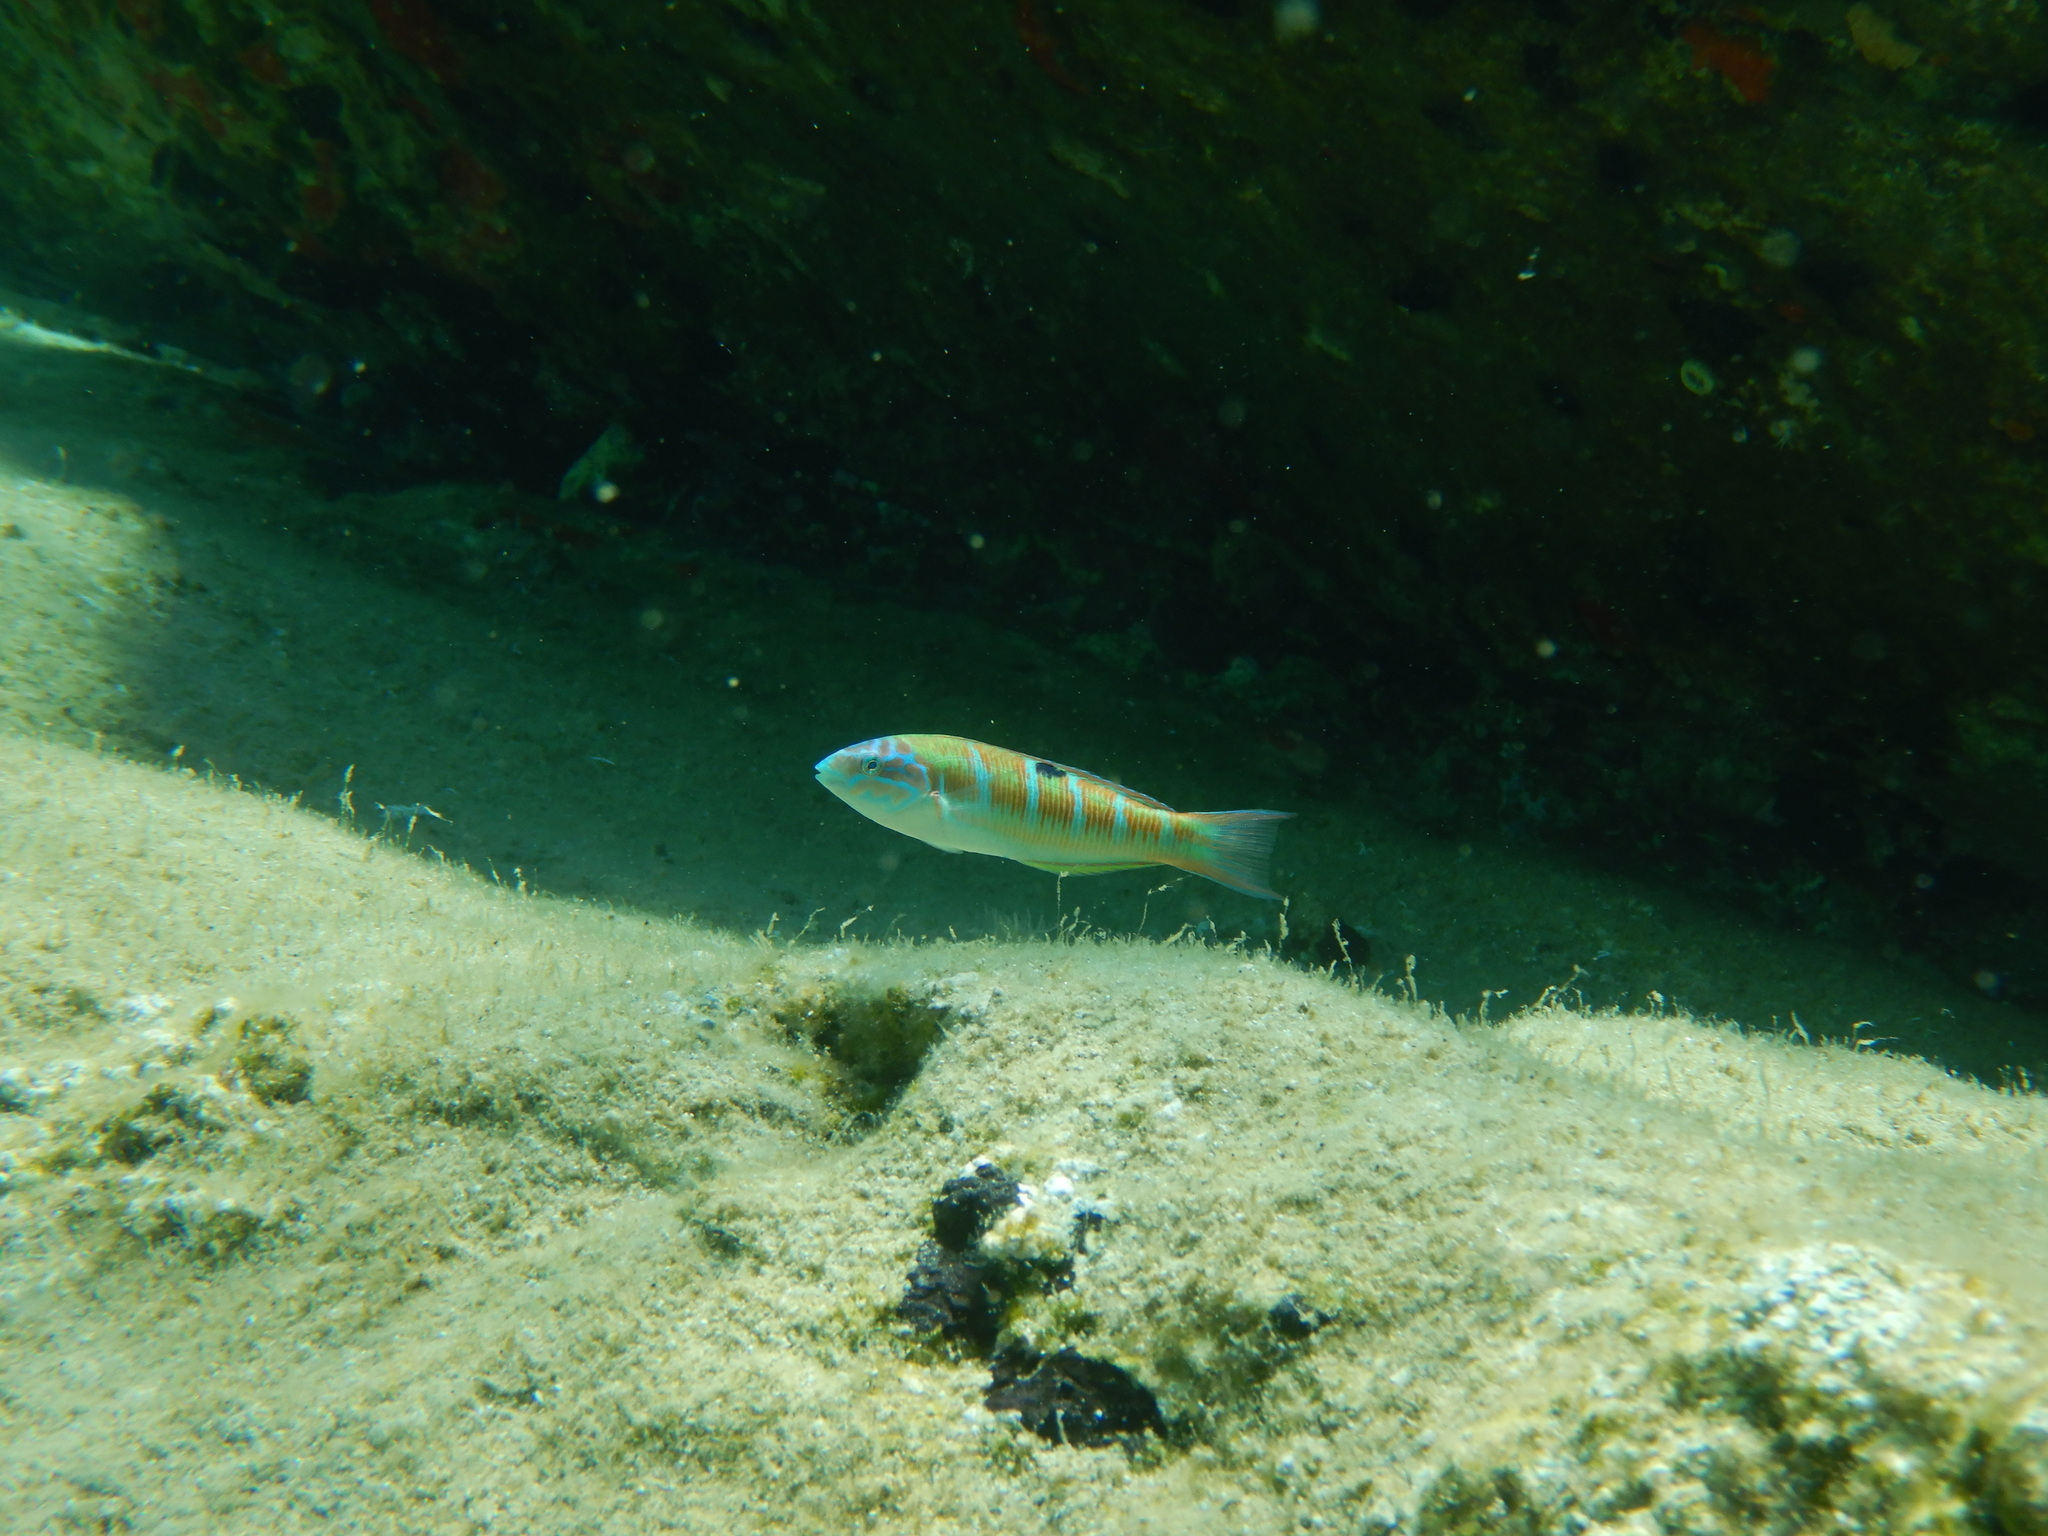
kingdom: Animalia
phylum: Chordata
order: Perciformes
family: Labridae
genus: Thalassoma
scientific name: Thalassoma pavo
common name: Ornate wrasse
